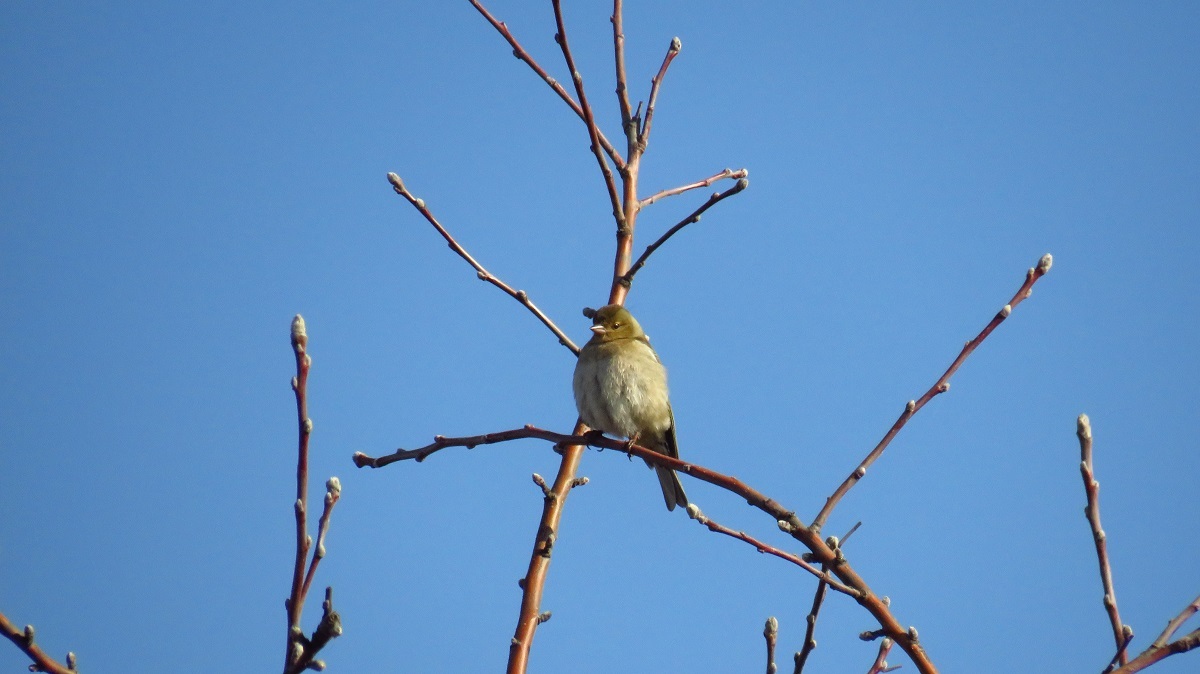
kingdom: Animalia
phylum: Chordata
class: Aves
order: Passeriformes
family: Fringillidae
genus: Fringilla
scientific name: Fringilla coelebs
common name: Common chaffinch
